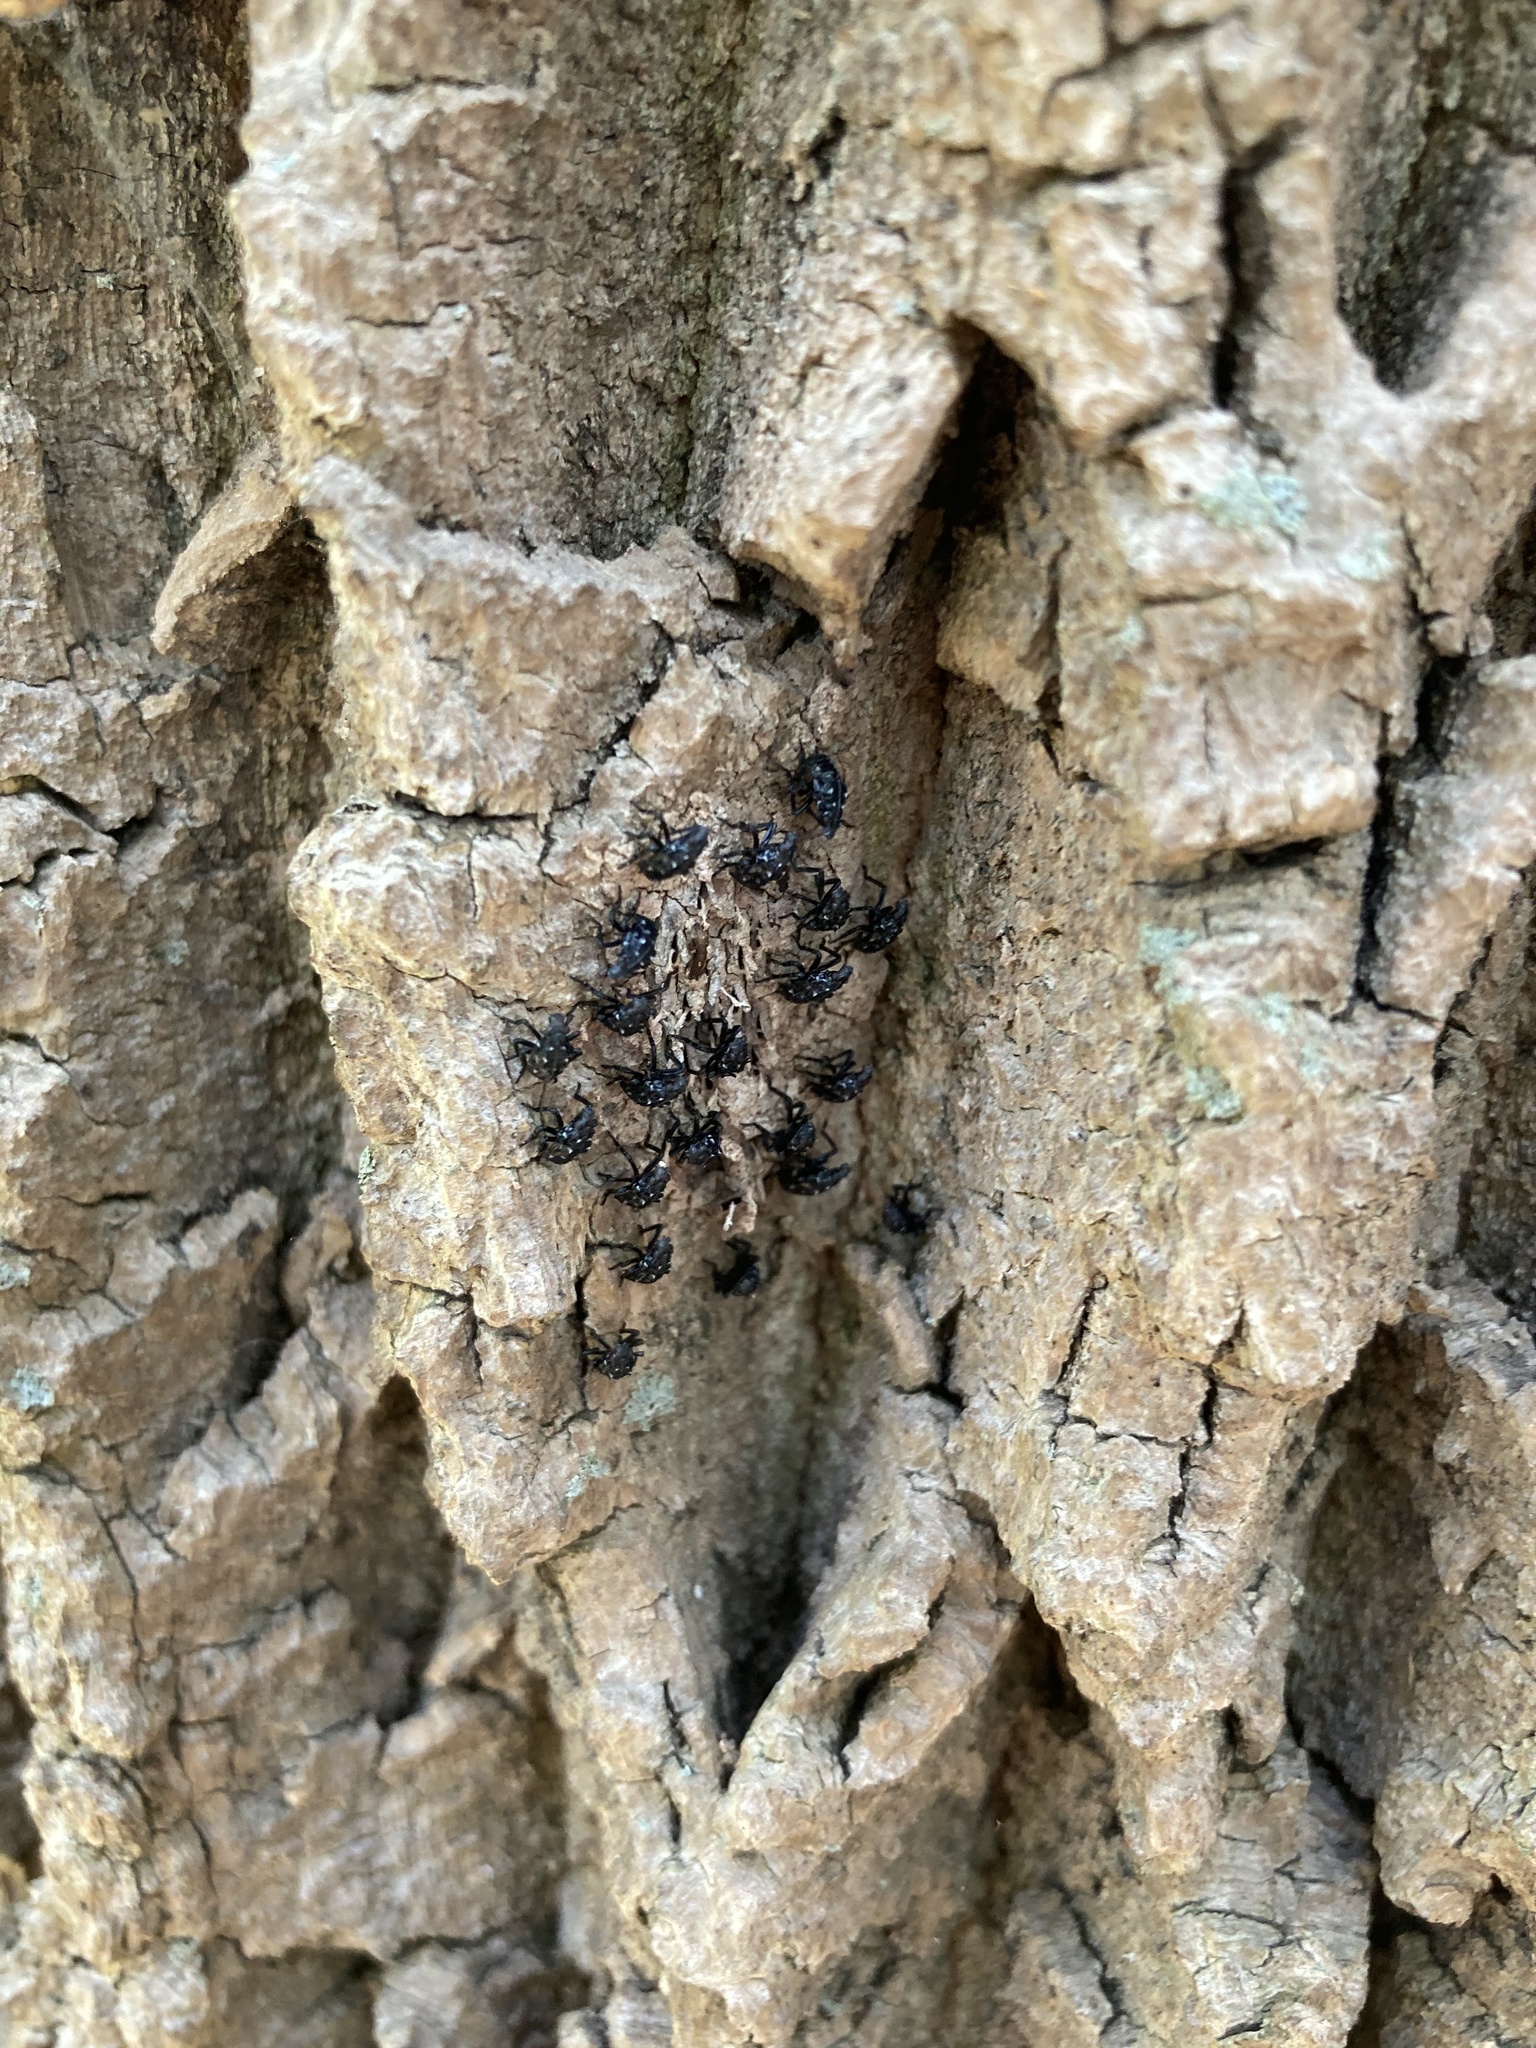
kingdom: Animalia
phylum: Arthropoda
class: Insecta
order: Hemiptera
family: Fulgoridae
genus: Lycorma
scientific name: Lycorma delicatula
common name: Spotted lanternfly
